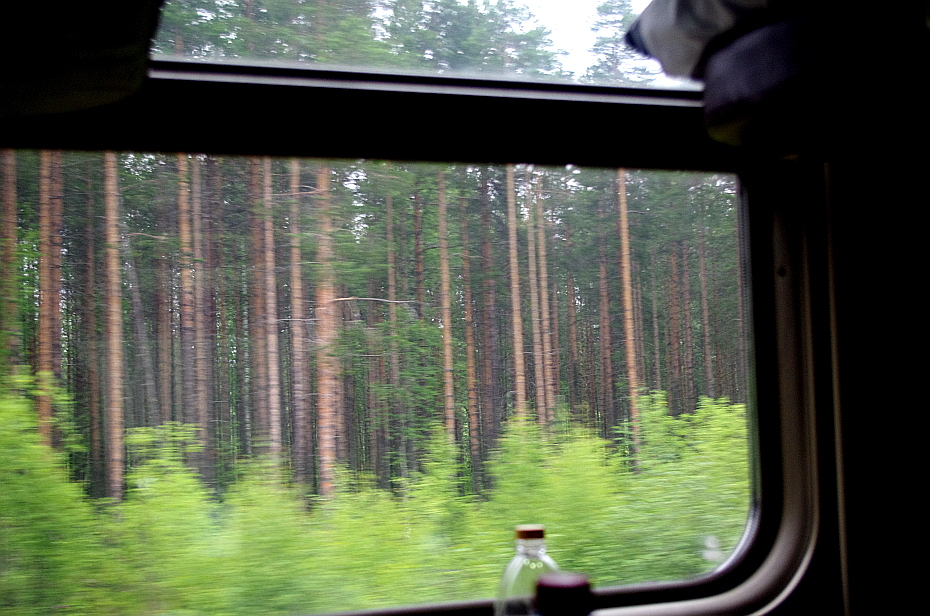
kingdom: Plantae
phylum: Tracheophyta
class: Pinopsida
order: Pinales
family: Pinaceae
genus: Pinus
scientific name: Pinus sylvestris
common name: Scots pine
